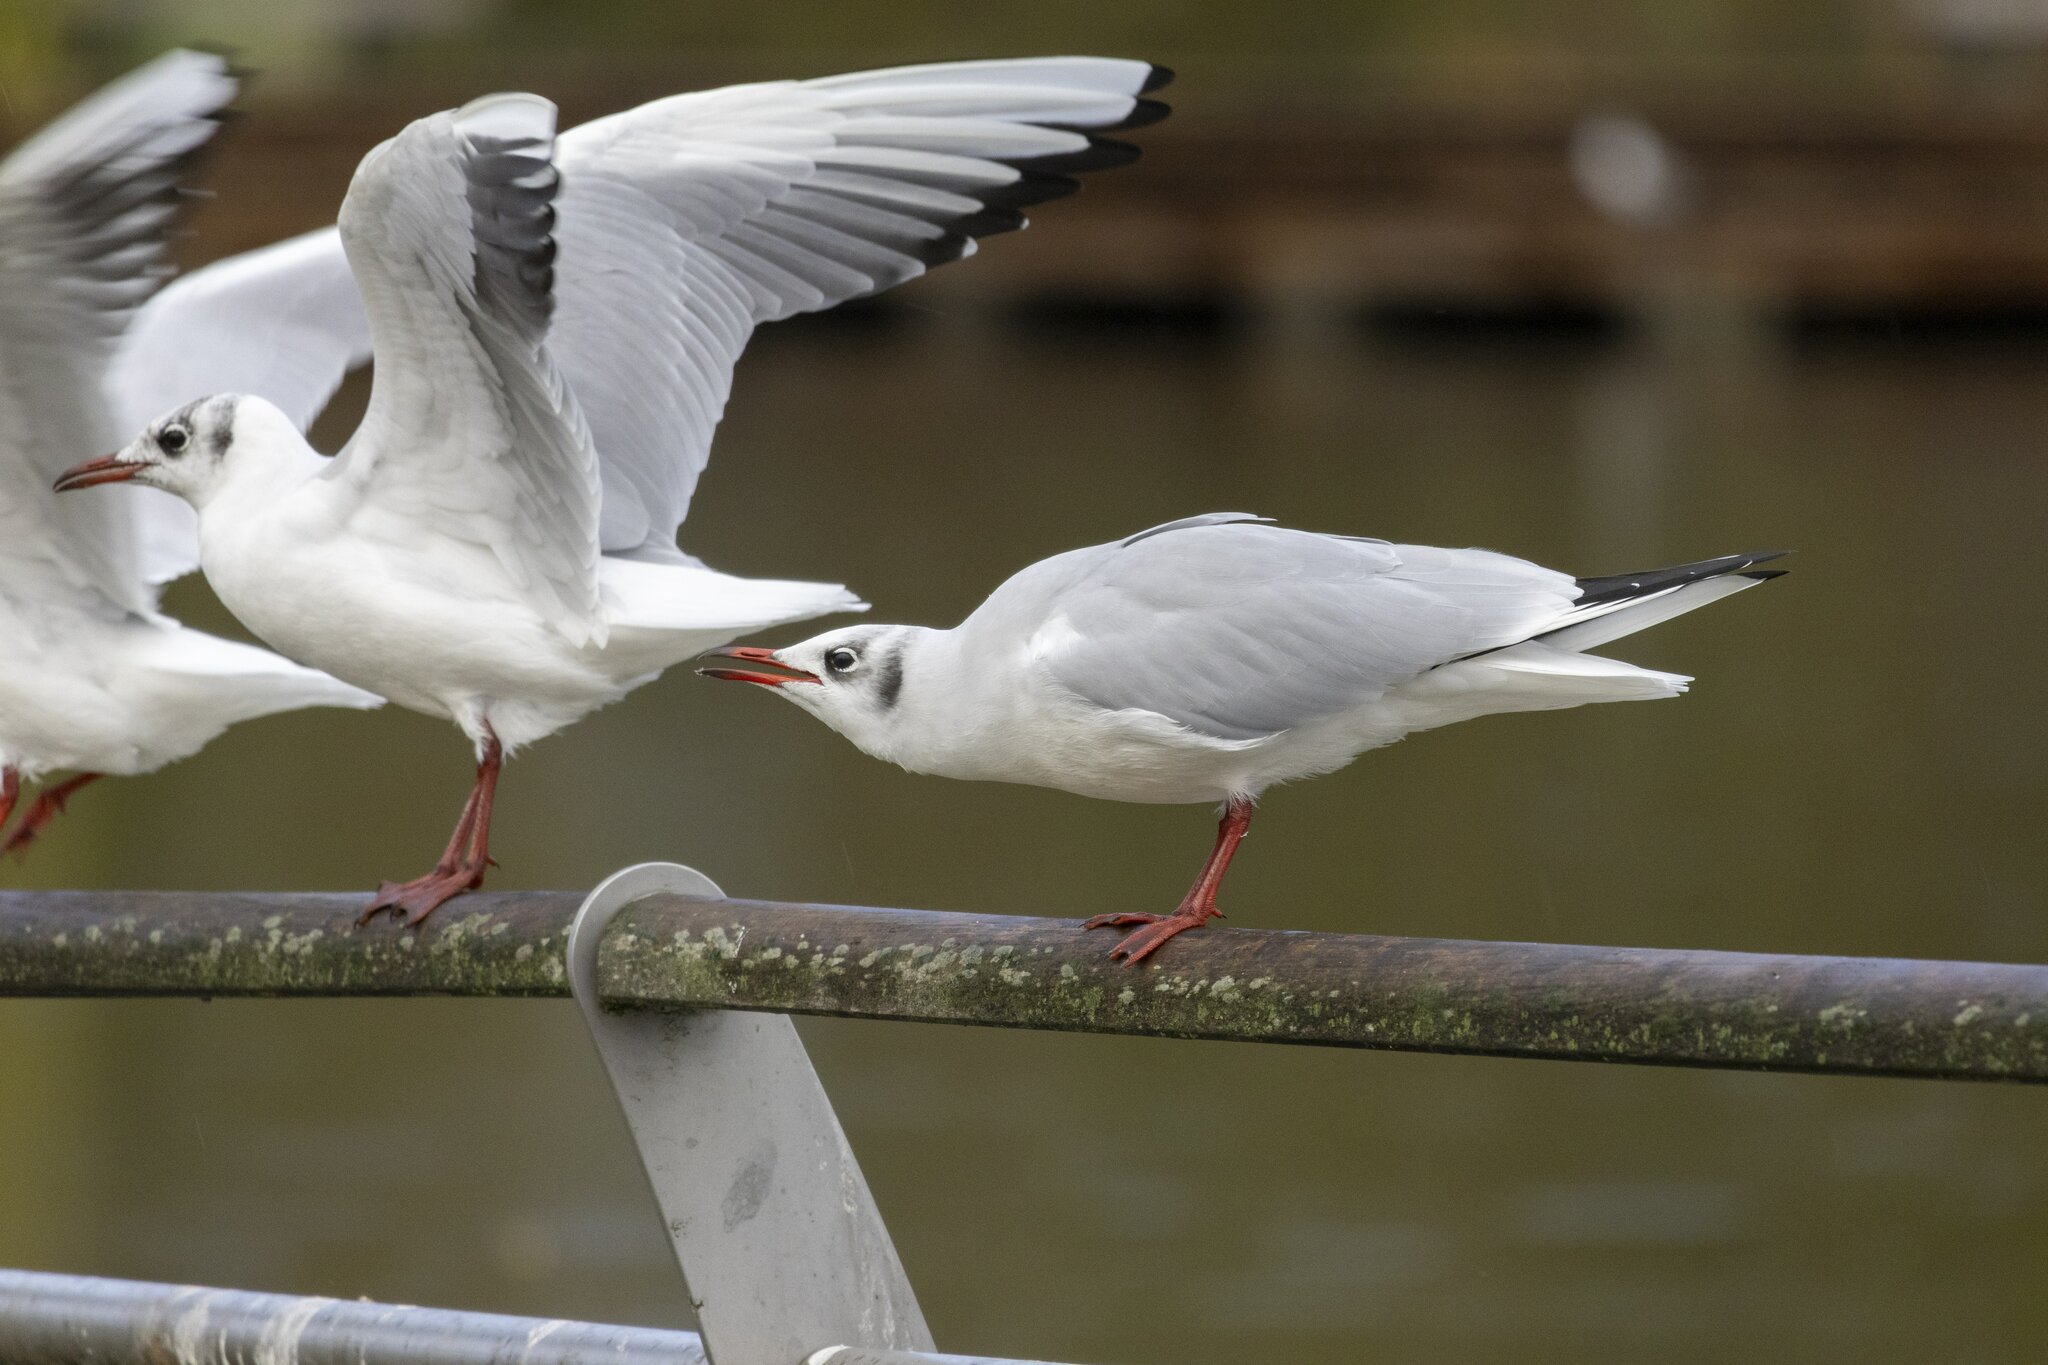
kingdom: Animalia
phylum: Chordata
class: Aves
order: Charadriiformes
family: Laridae
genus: Chroicocephalus
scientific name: Chroicocephalus ridibundus
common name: Black-headed gull
